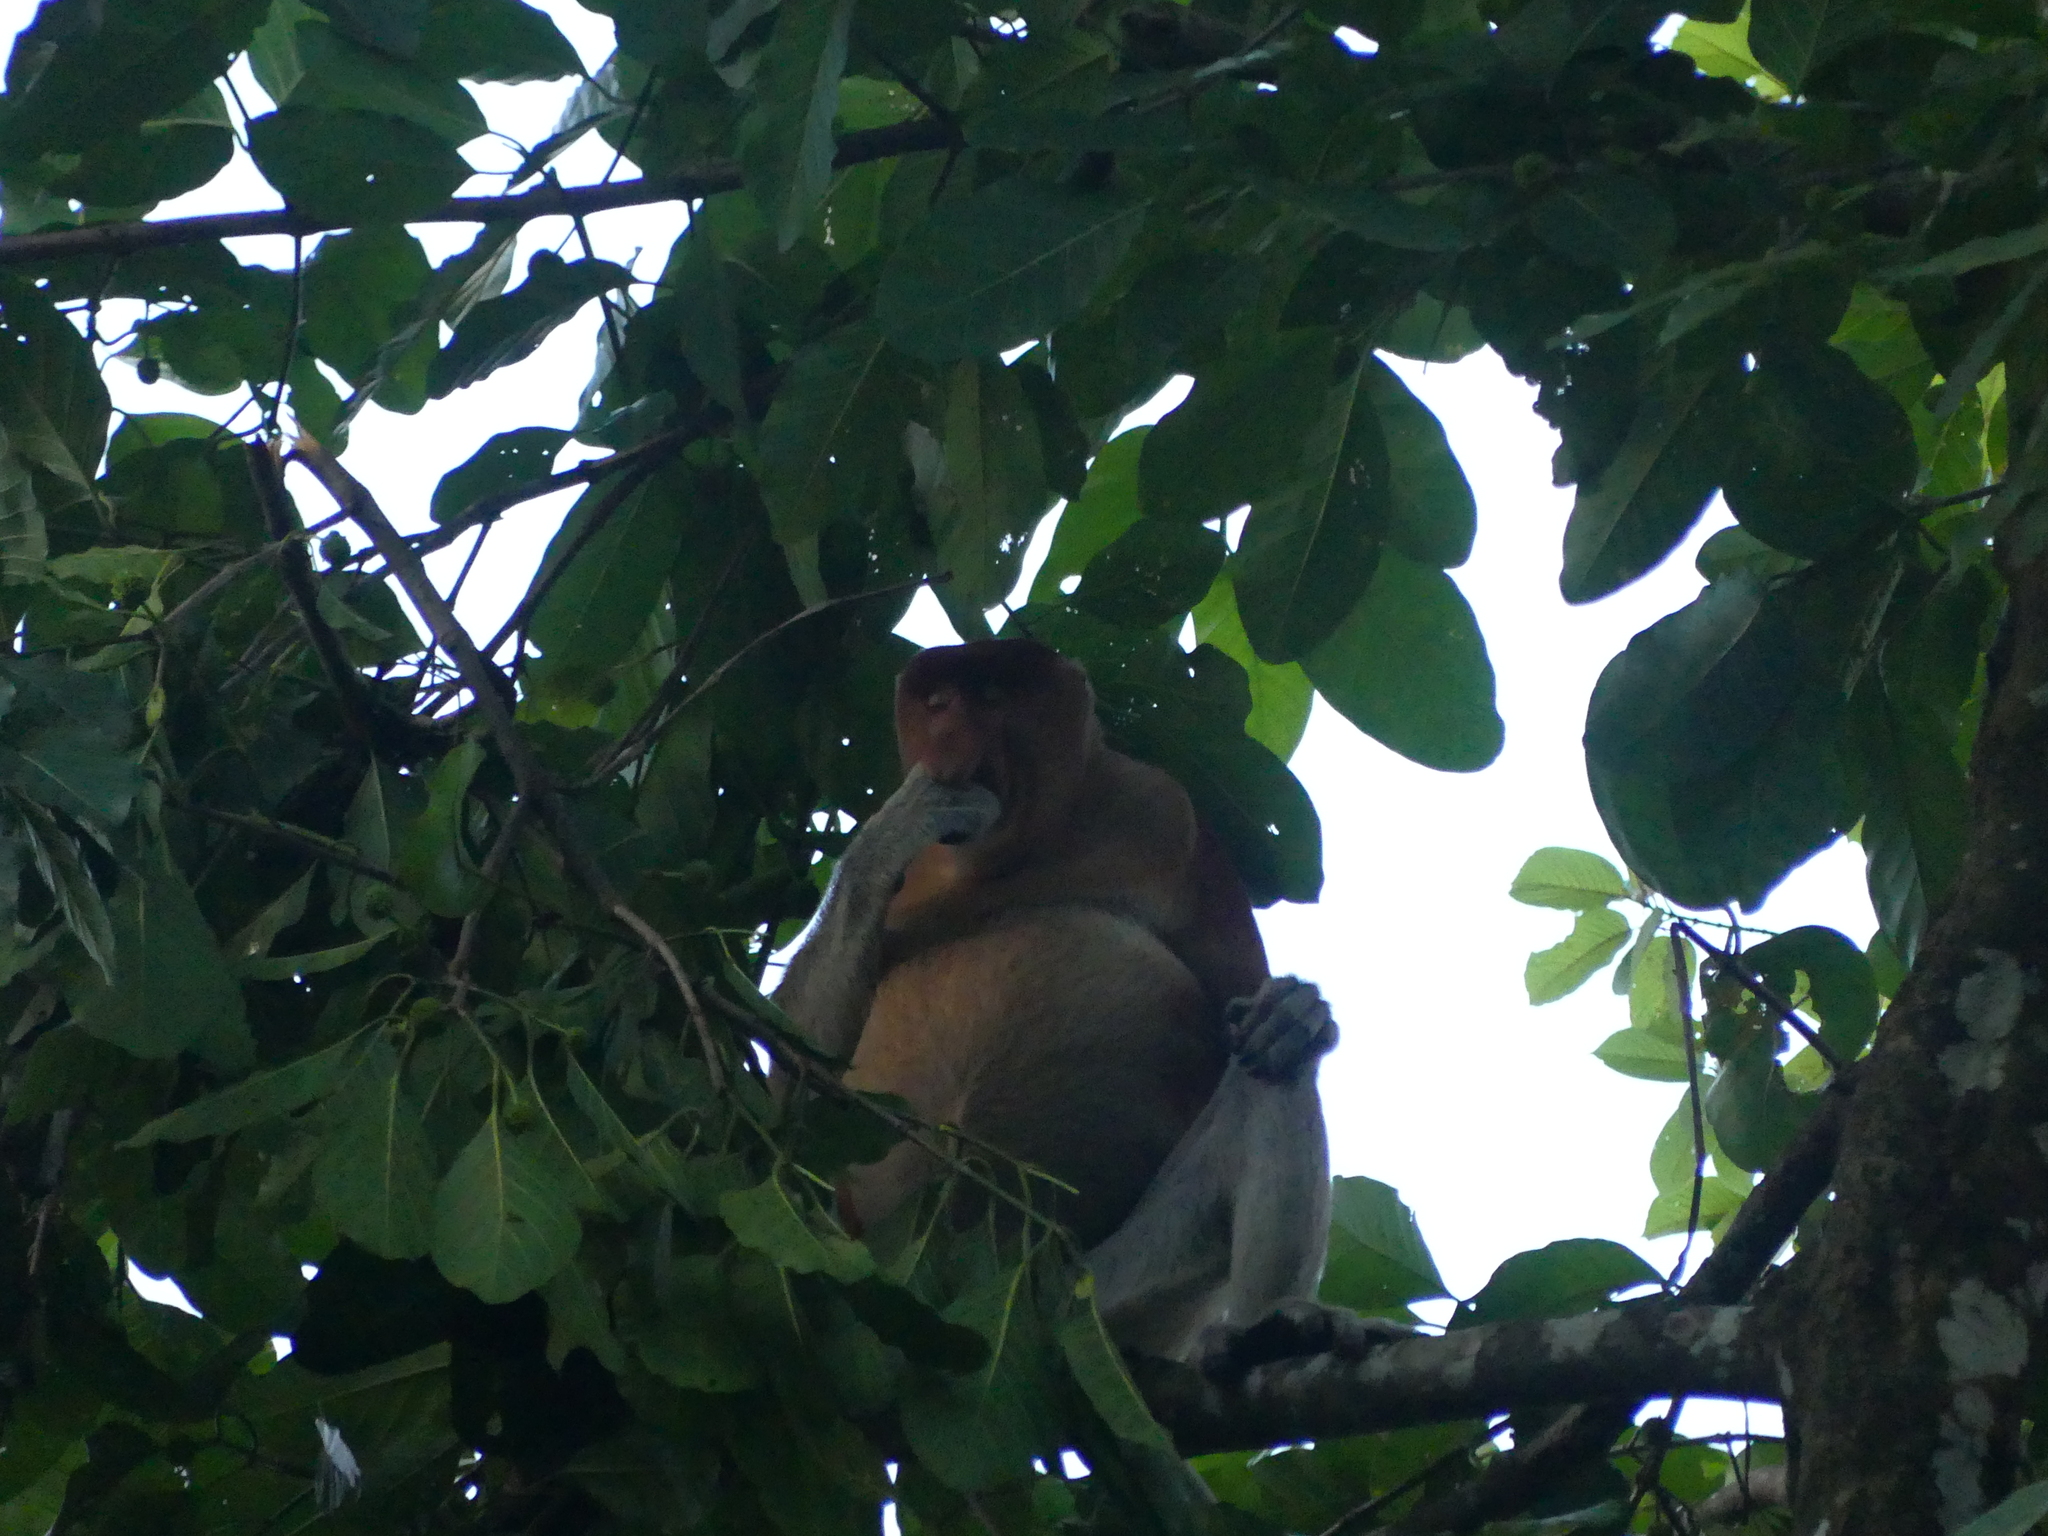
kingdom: Animalia
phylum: Chordata
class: Mammalia
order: Primates
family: Cercopithecidae
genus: Nasalis
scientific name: Nasalis larvatus
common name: Proboscis monkey
